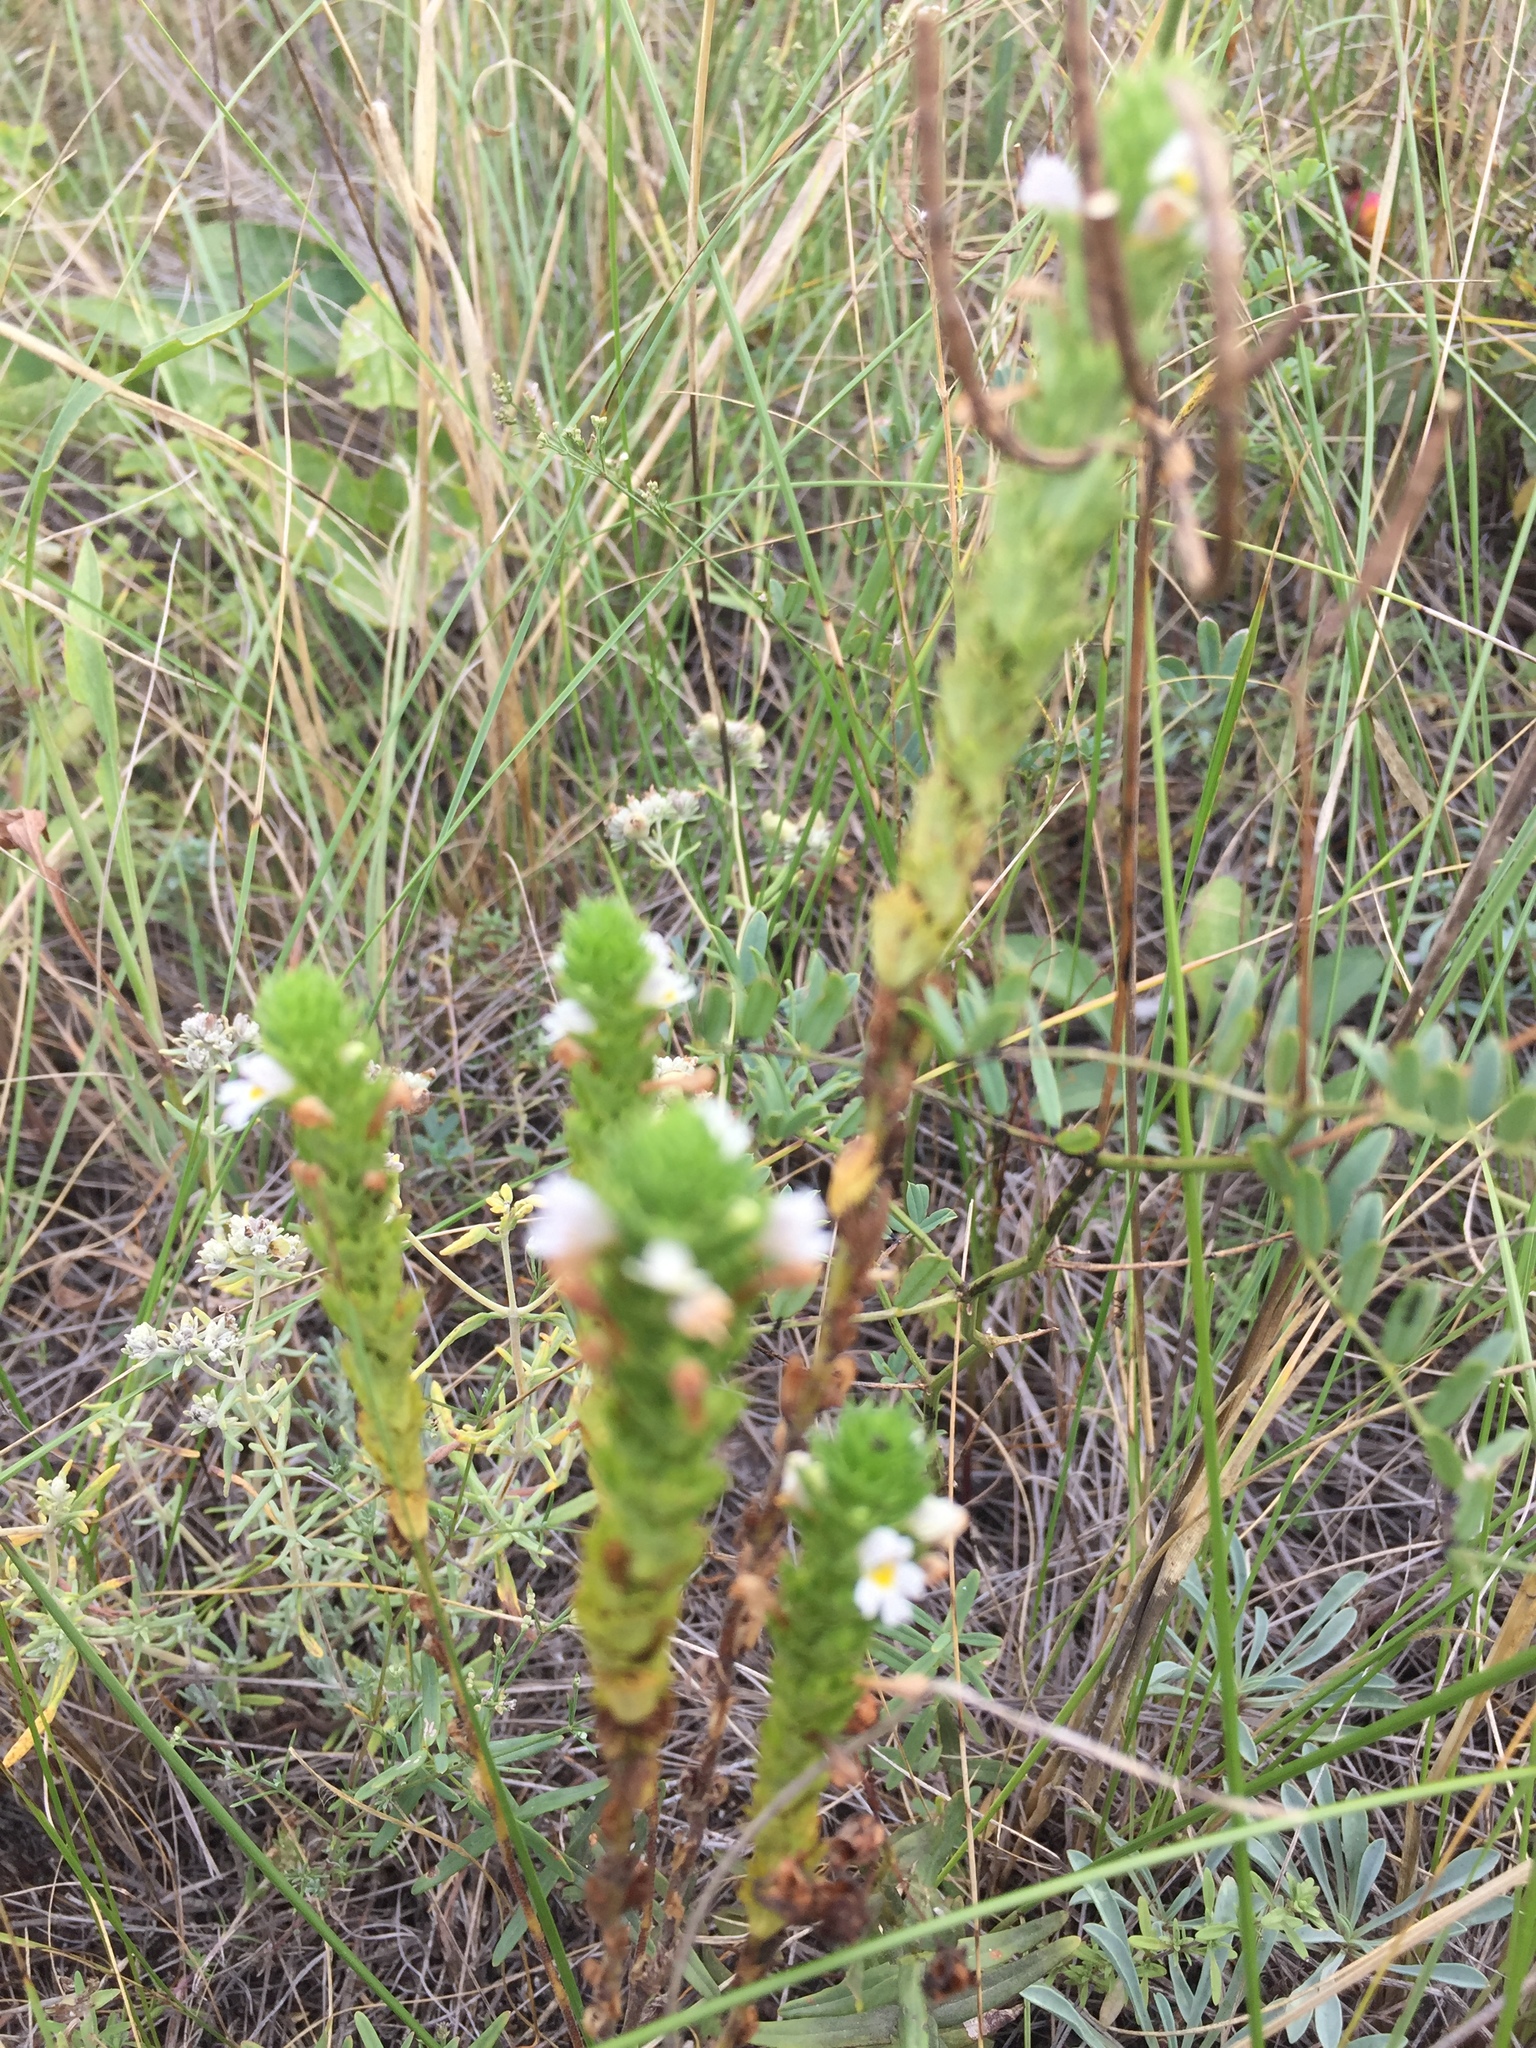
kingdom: Plantae
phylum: Tracheophyta
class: Magnoliopsida
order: Lamiales
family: Orobanchaceae
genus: Euphrasia
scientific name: Euphrasia stricta
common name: Drug eyebright
